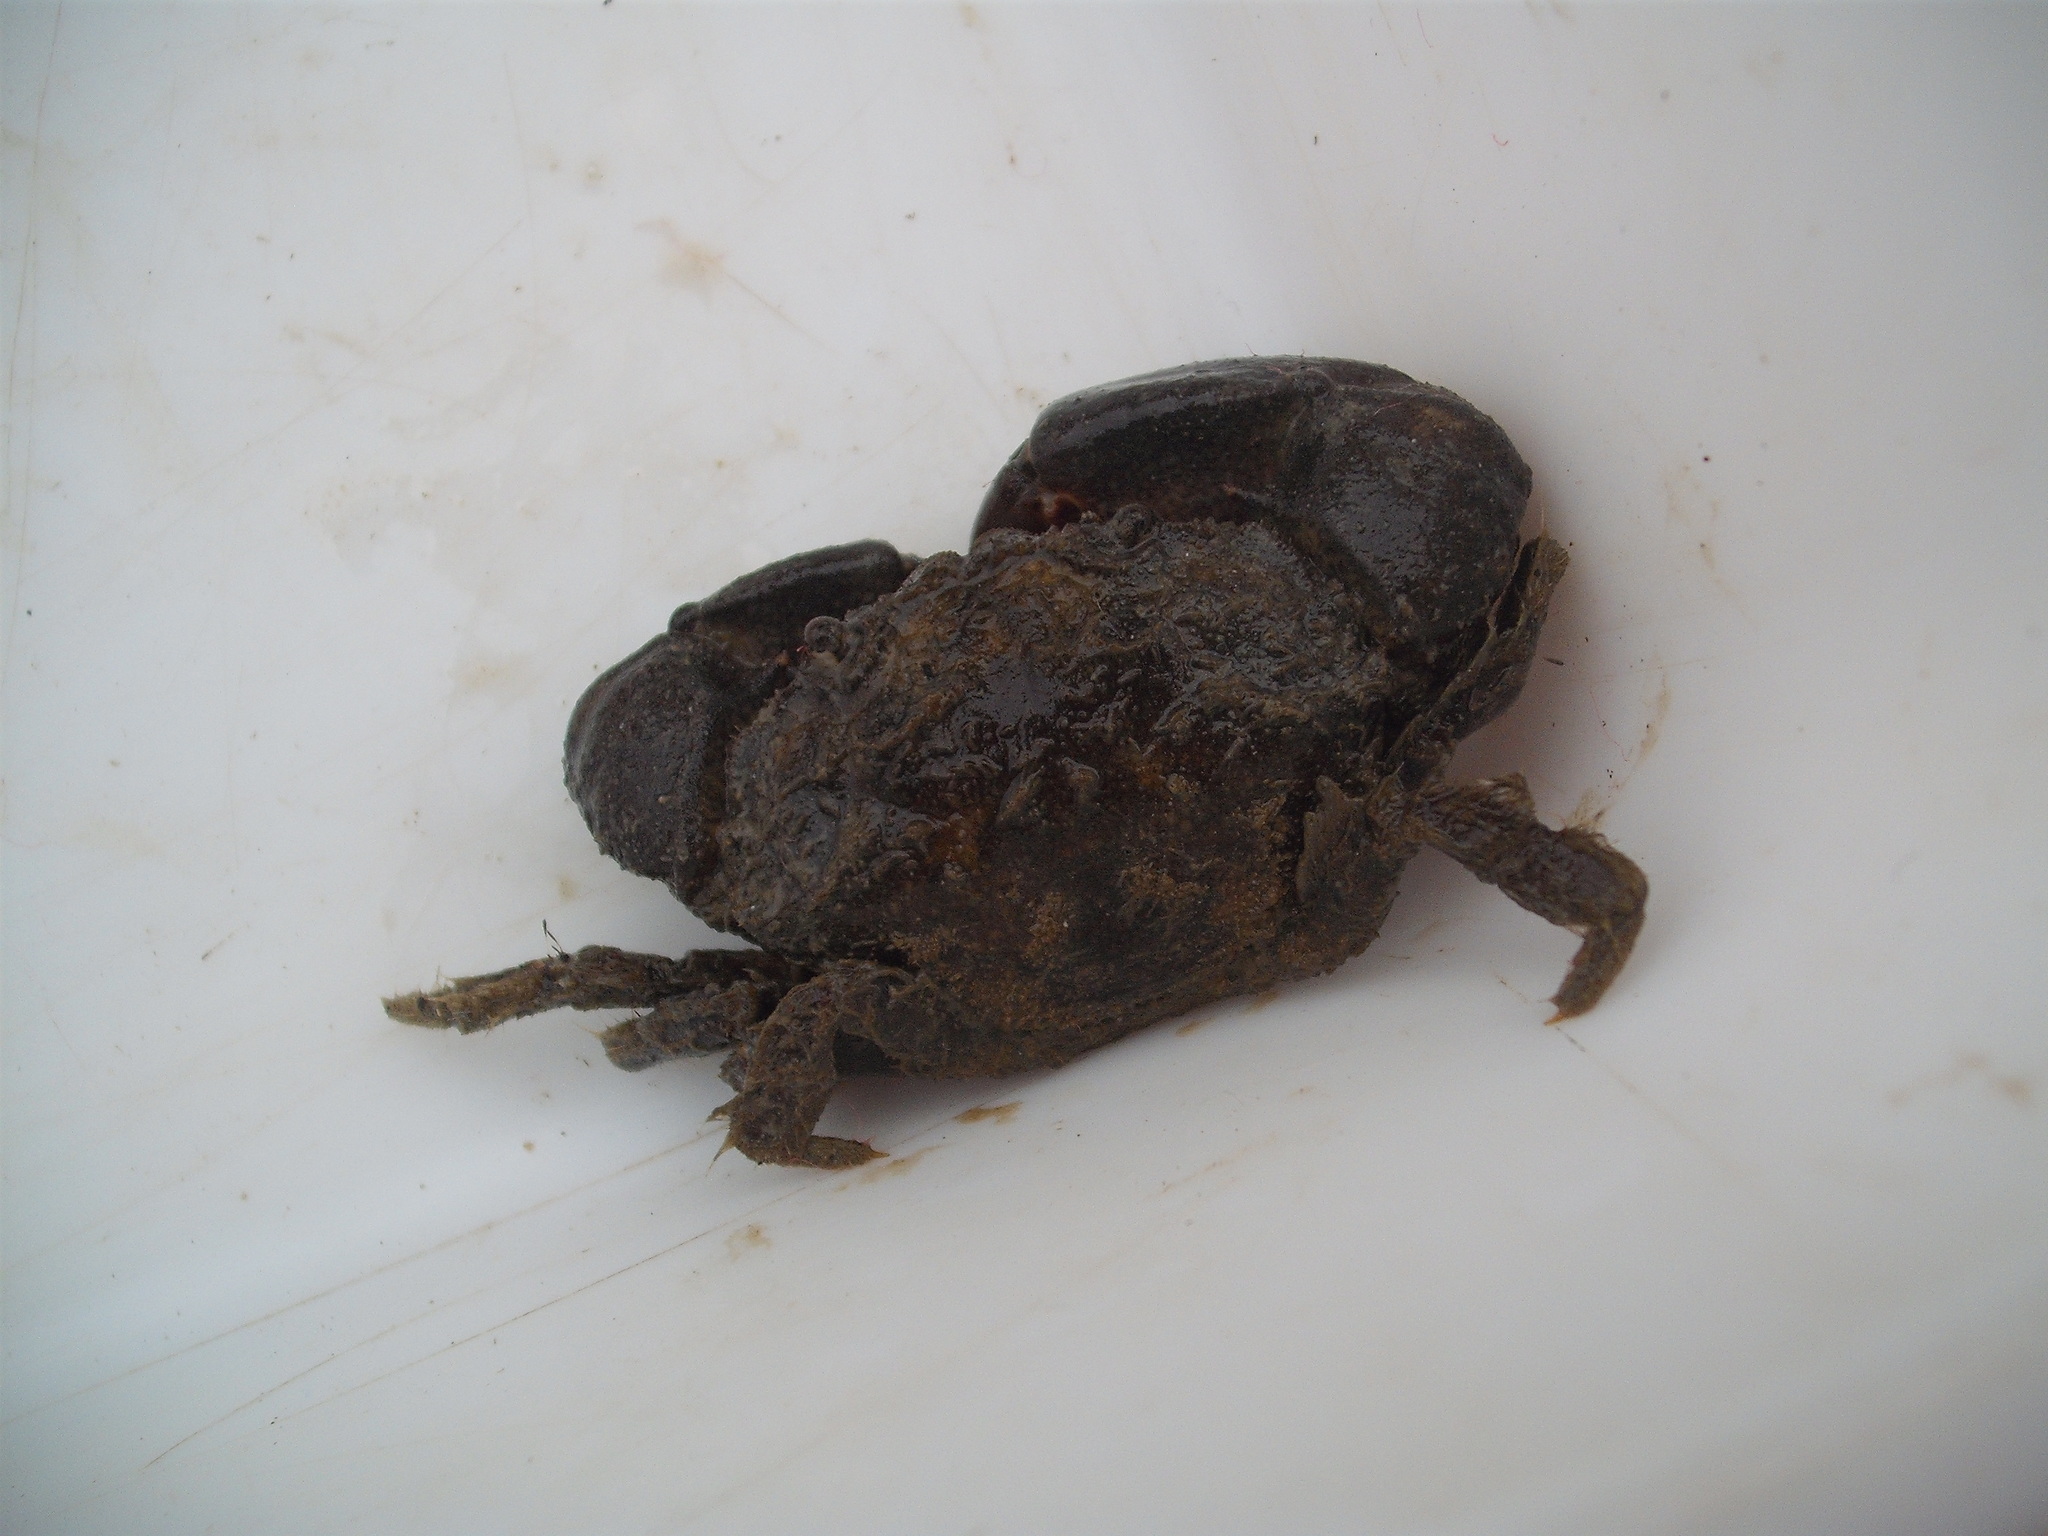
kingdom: Animalia
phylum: Arthropoda
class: Malacostraca
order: Decapoda
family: Pilumnidae
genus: Pilumnopeus
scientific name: Pilumnopeus serratifrons
